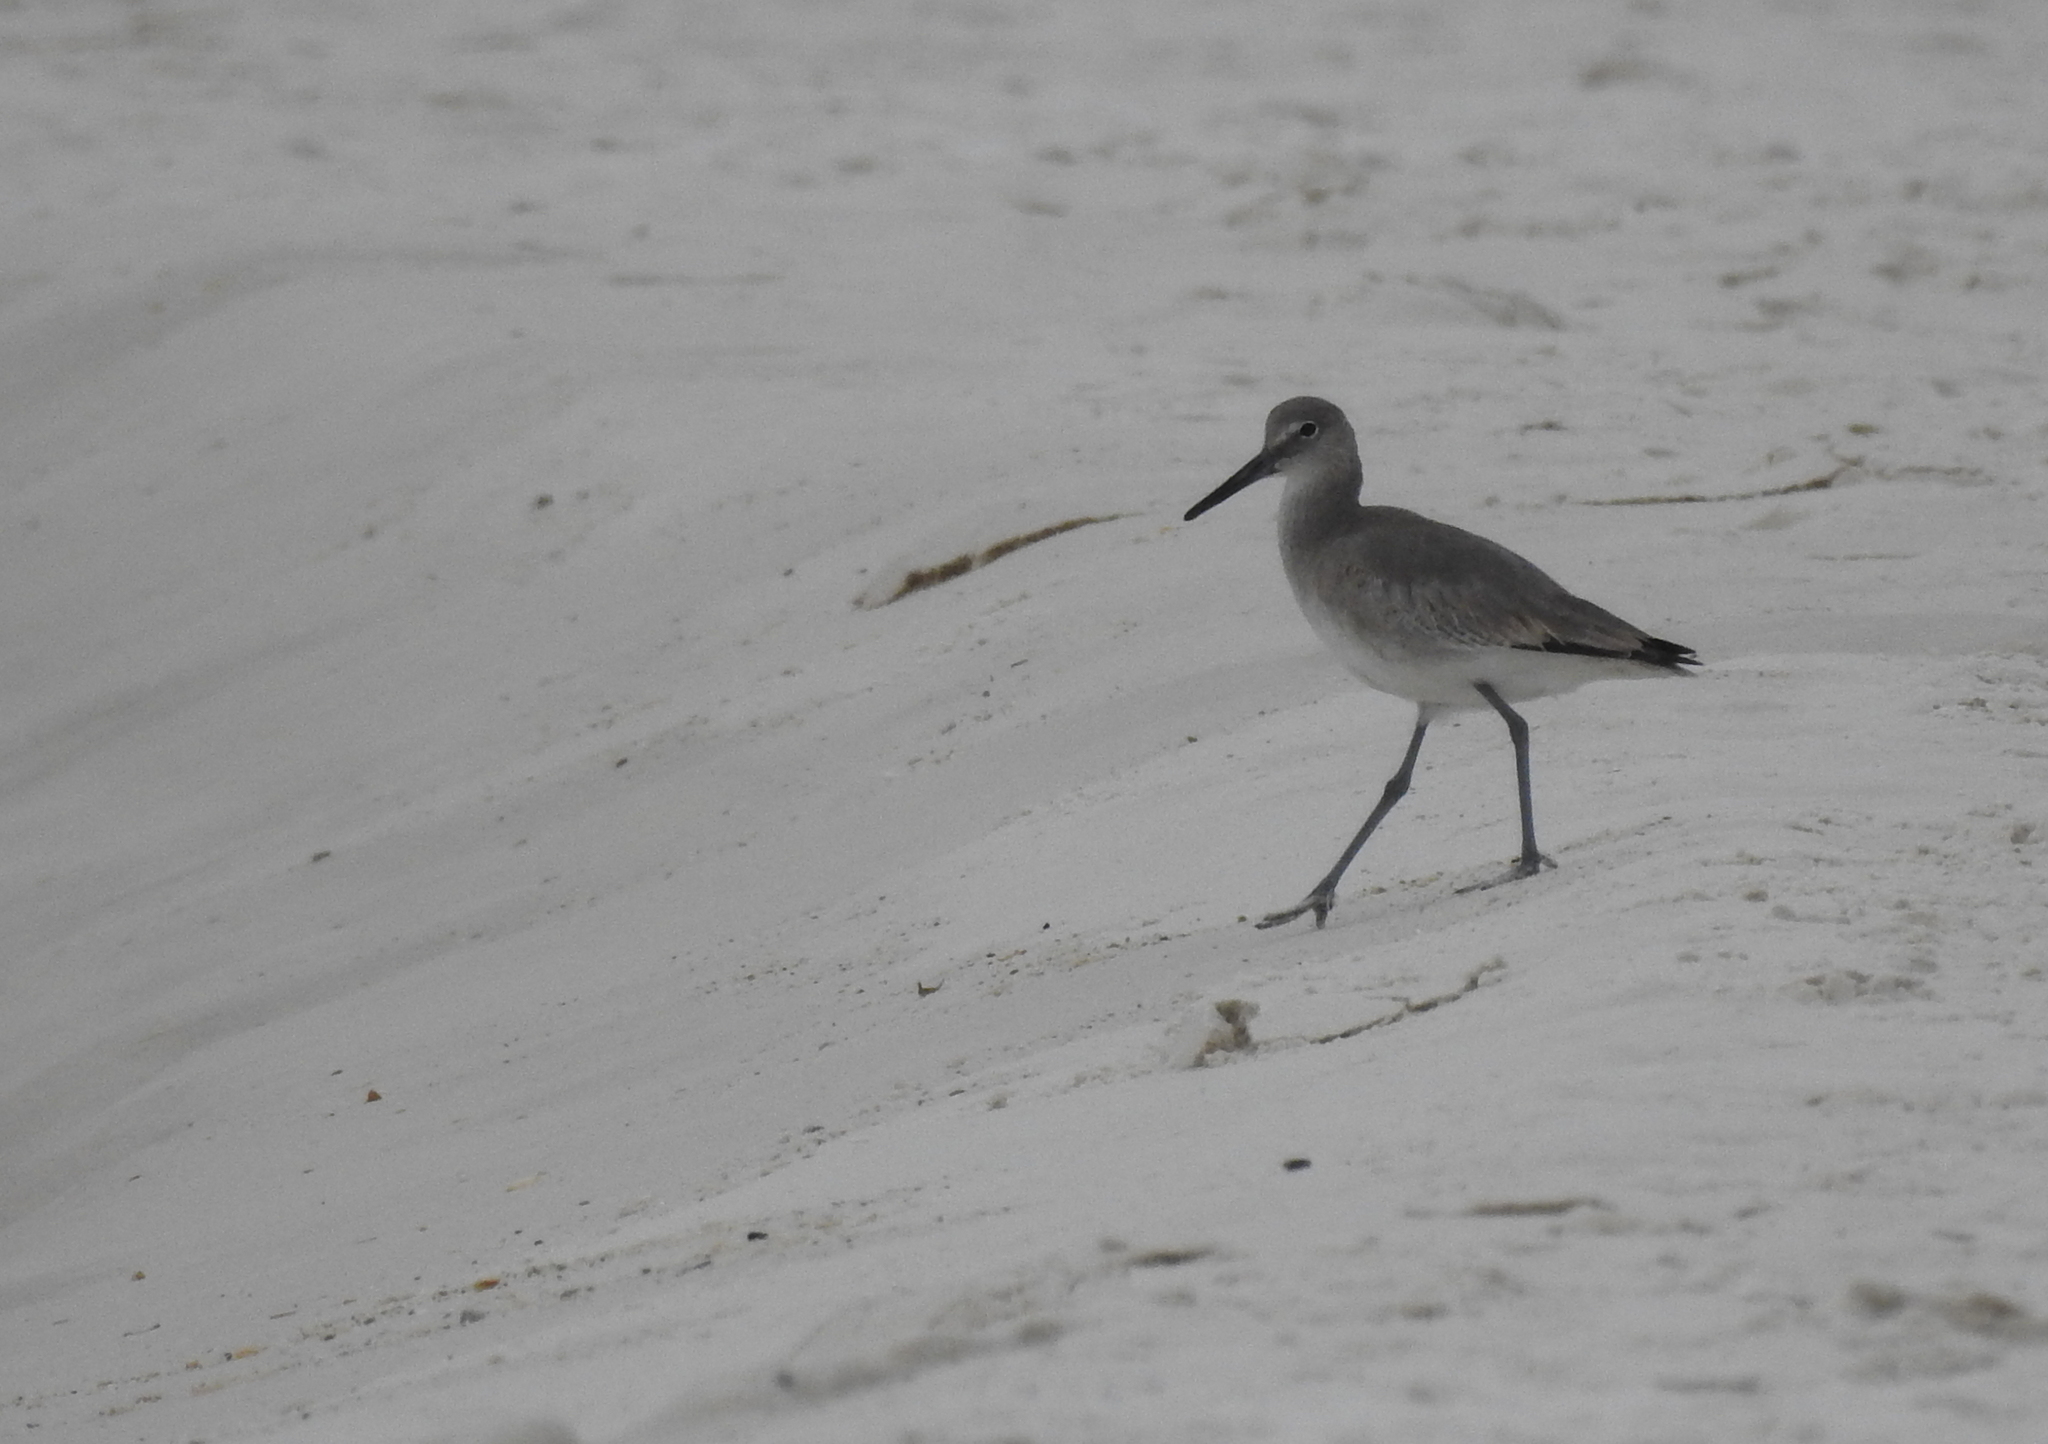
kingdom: Animalia
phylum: Chordata
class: Aves
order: Charadriiformes
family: Scolopacidae
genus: Tringa
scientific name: Tringa semipalmata
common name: Willet
